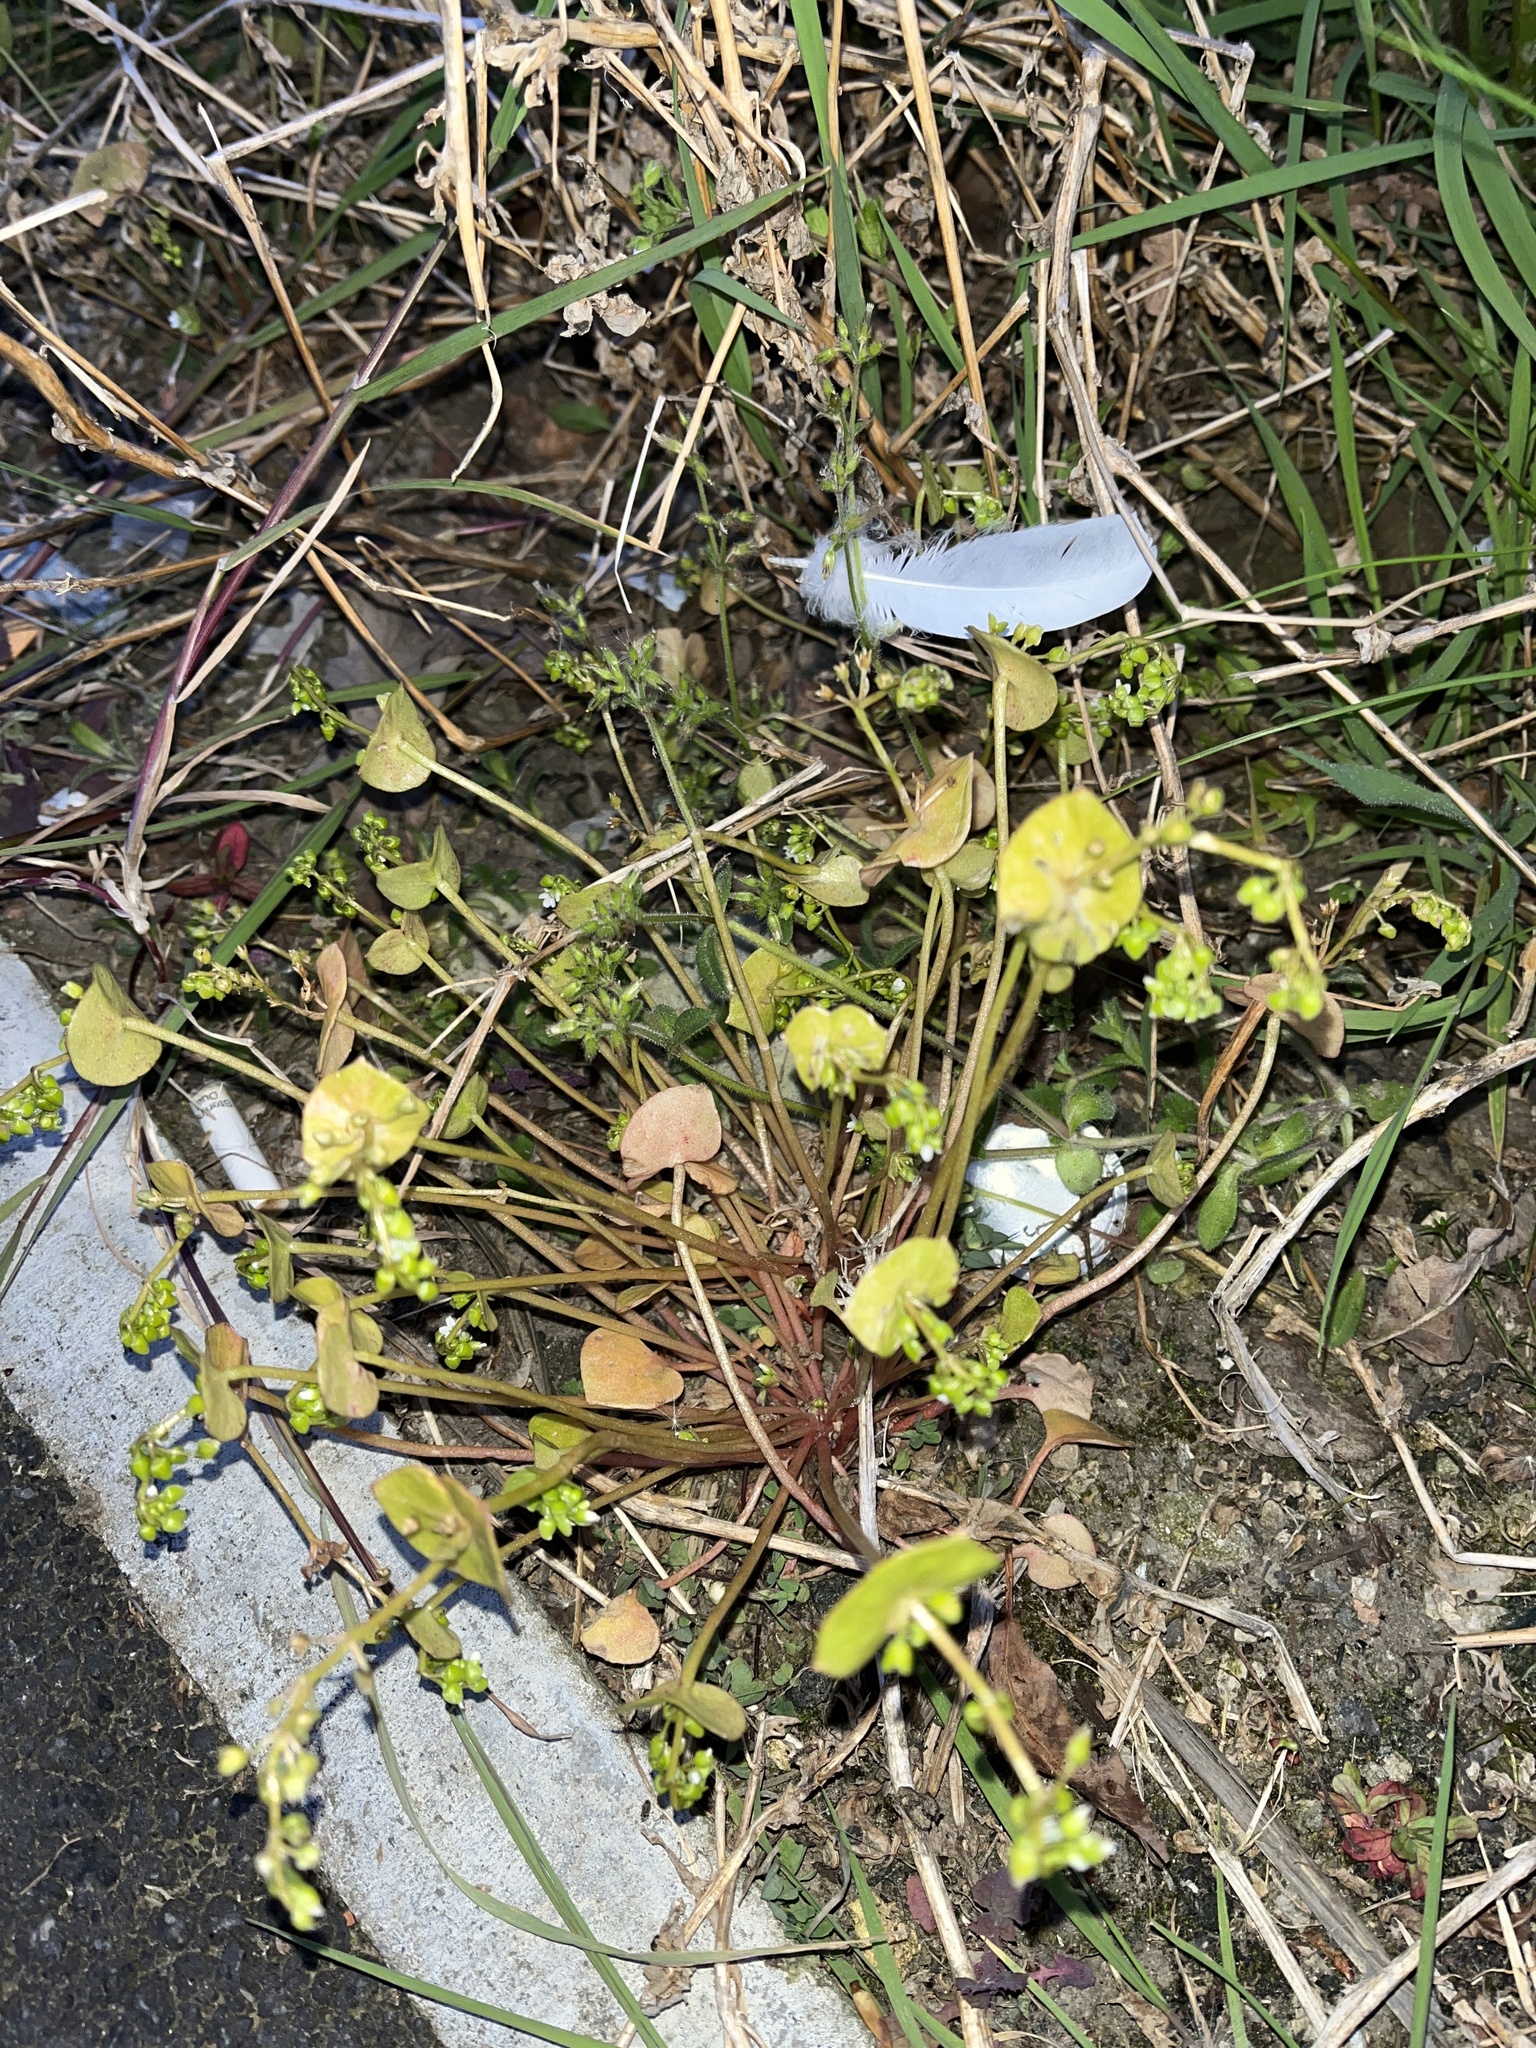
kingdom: Plantae
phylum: Tracheophyta
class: Magnoliopsida
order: Caryophyllales
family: Montiaceae
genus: Claytonia
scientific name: Claytonia perfoliata
